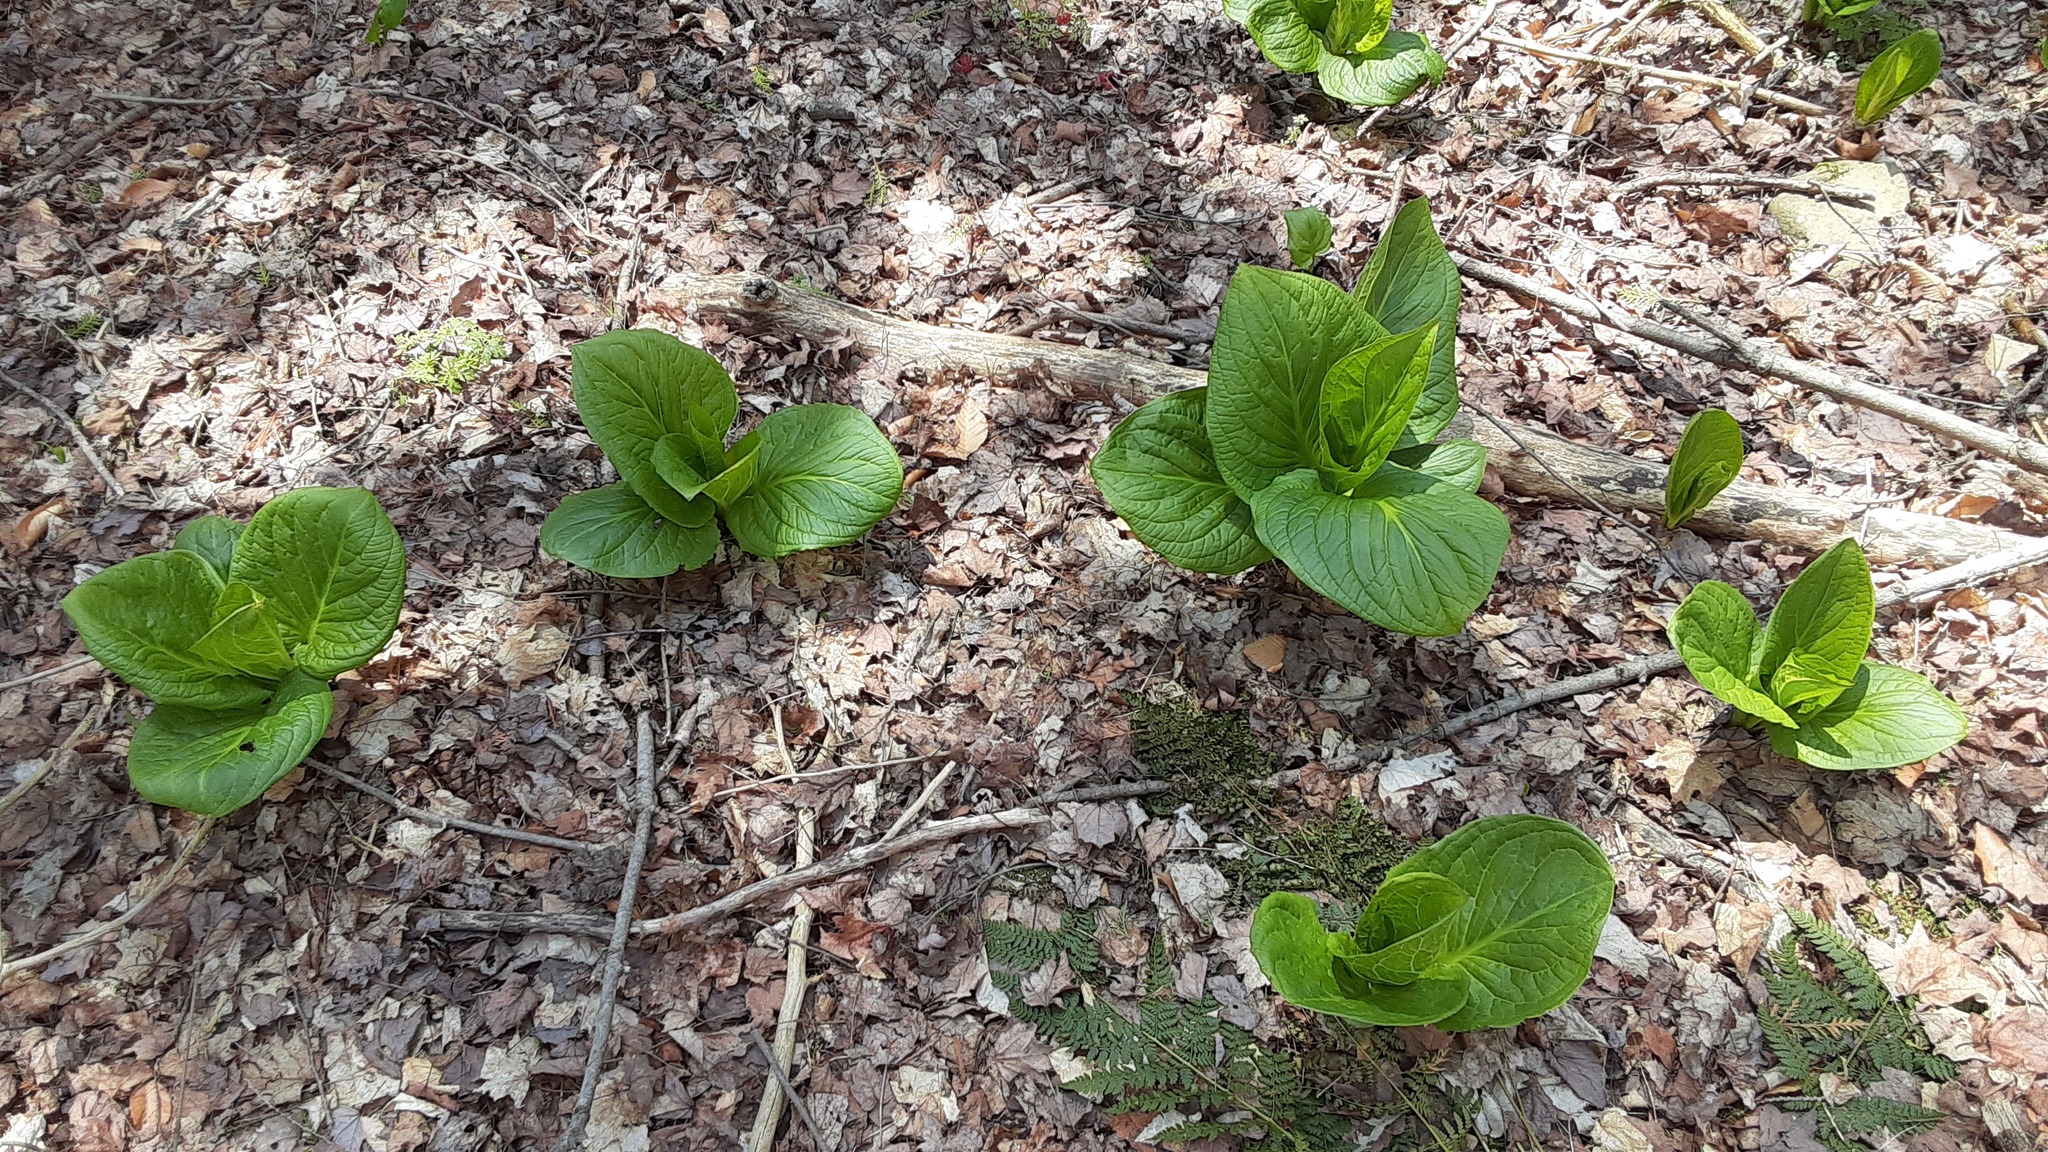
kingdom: Plantae
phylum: Tracheophyta
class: Liliopsida
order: Alismatales
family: Araceae
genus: Symplocarpus
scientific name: Symplocarpus foetidus
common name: Eastern skunk cabbage
